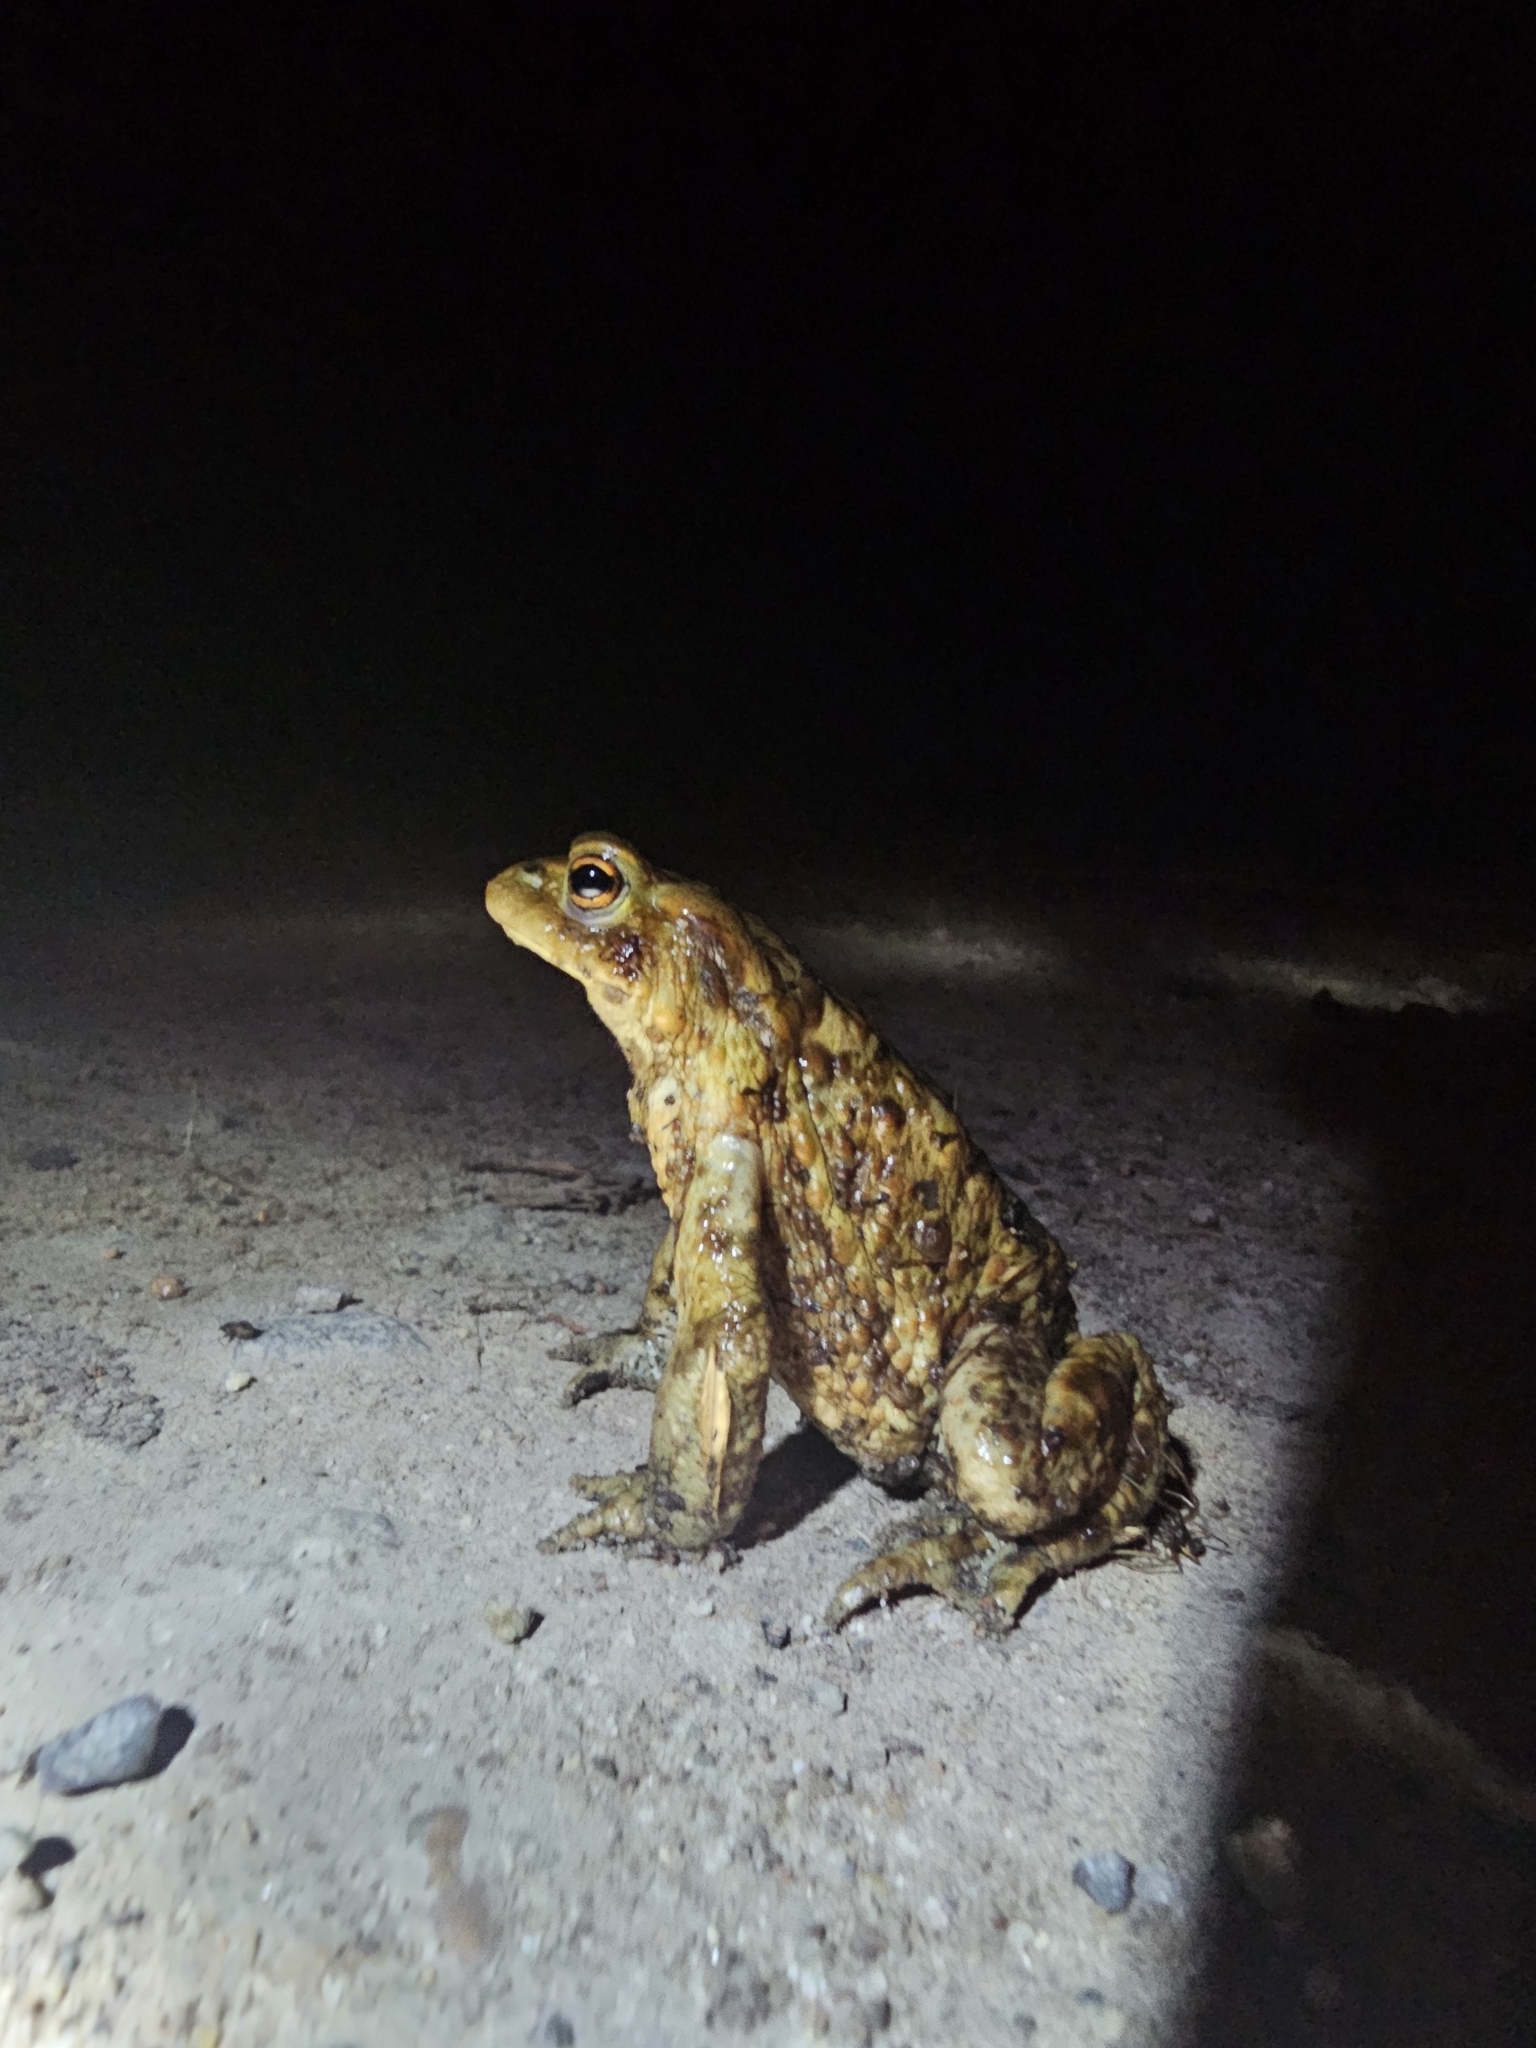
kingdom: Animalia
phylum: Chordata
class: Amphibia
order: Anura
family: Bufonidae
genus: Bufo
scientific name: Bufo bufo
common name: Common toad
